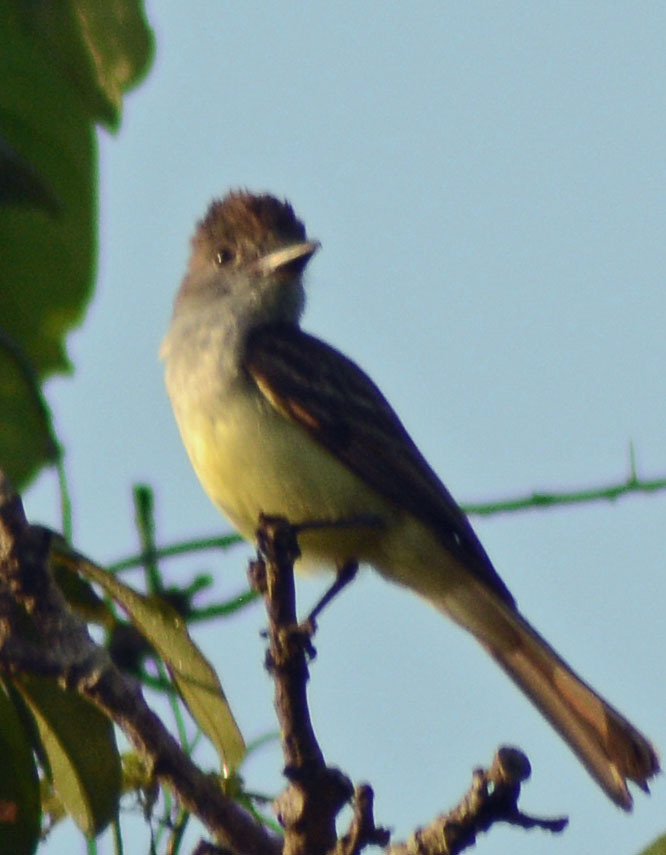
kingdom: Animalia
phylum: Chordata
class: Aves
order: Passeriformes
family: Tyrannidae
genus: Myiarchus
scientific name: Myiarchus tyrannulus
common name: Brown-crested flycatcher
